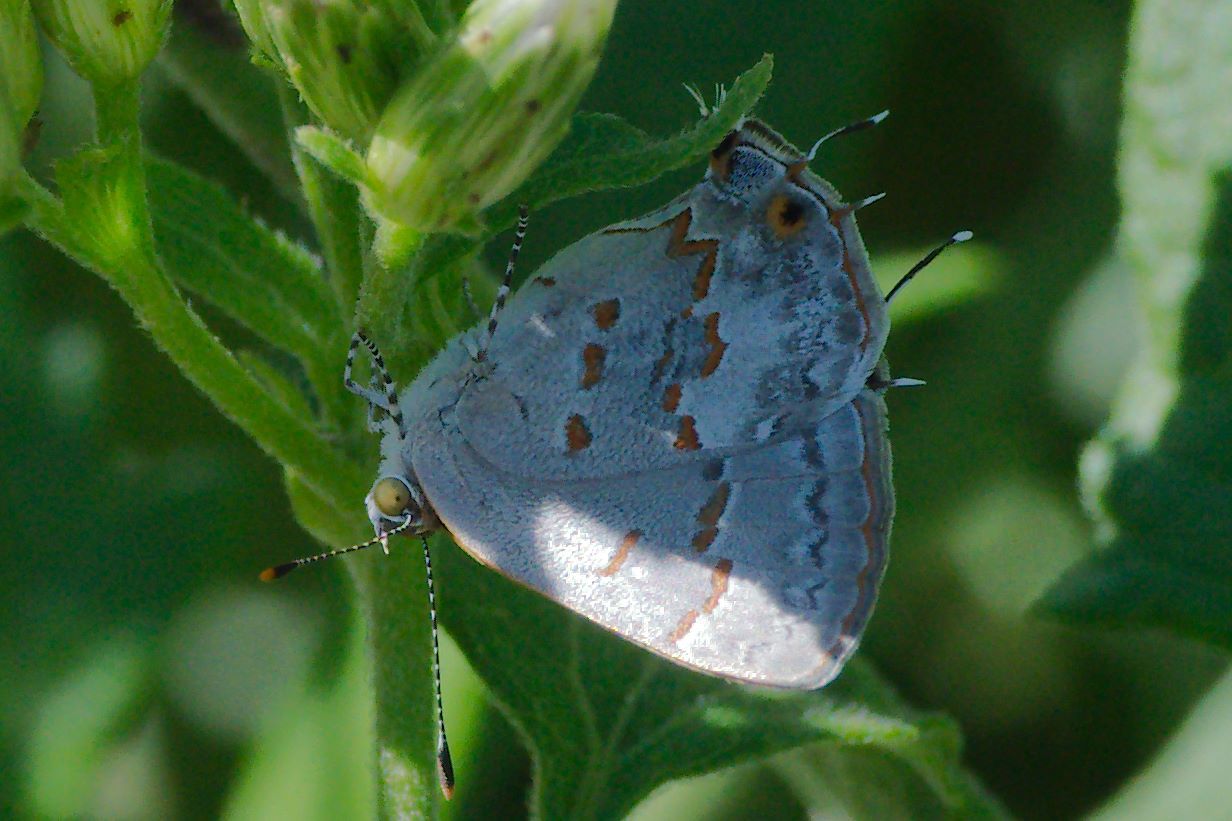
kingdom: Animalia
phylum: Arthropoda
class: Insecta
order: Lepidoptera
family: Lycaenidae
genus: Ministrymon
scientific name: Ministrymon clytie
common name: Clytie ministreak
